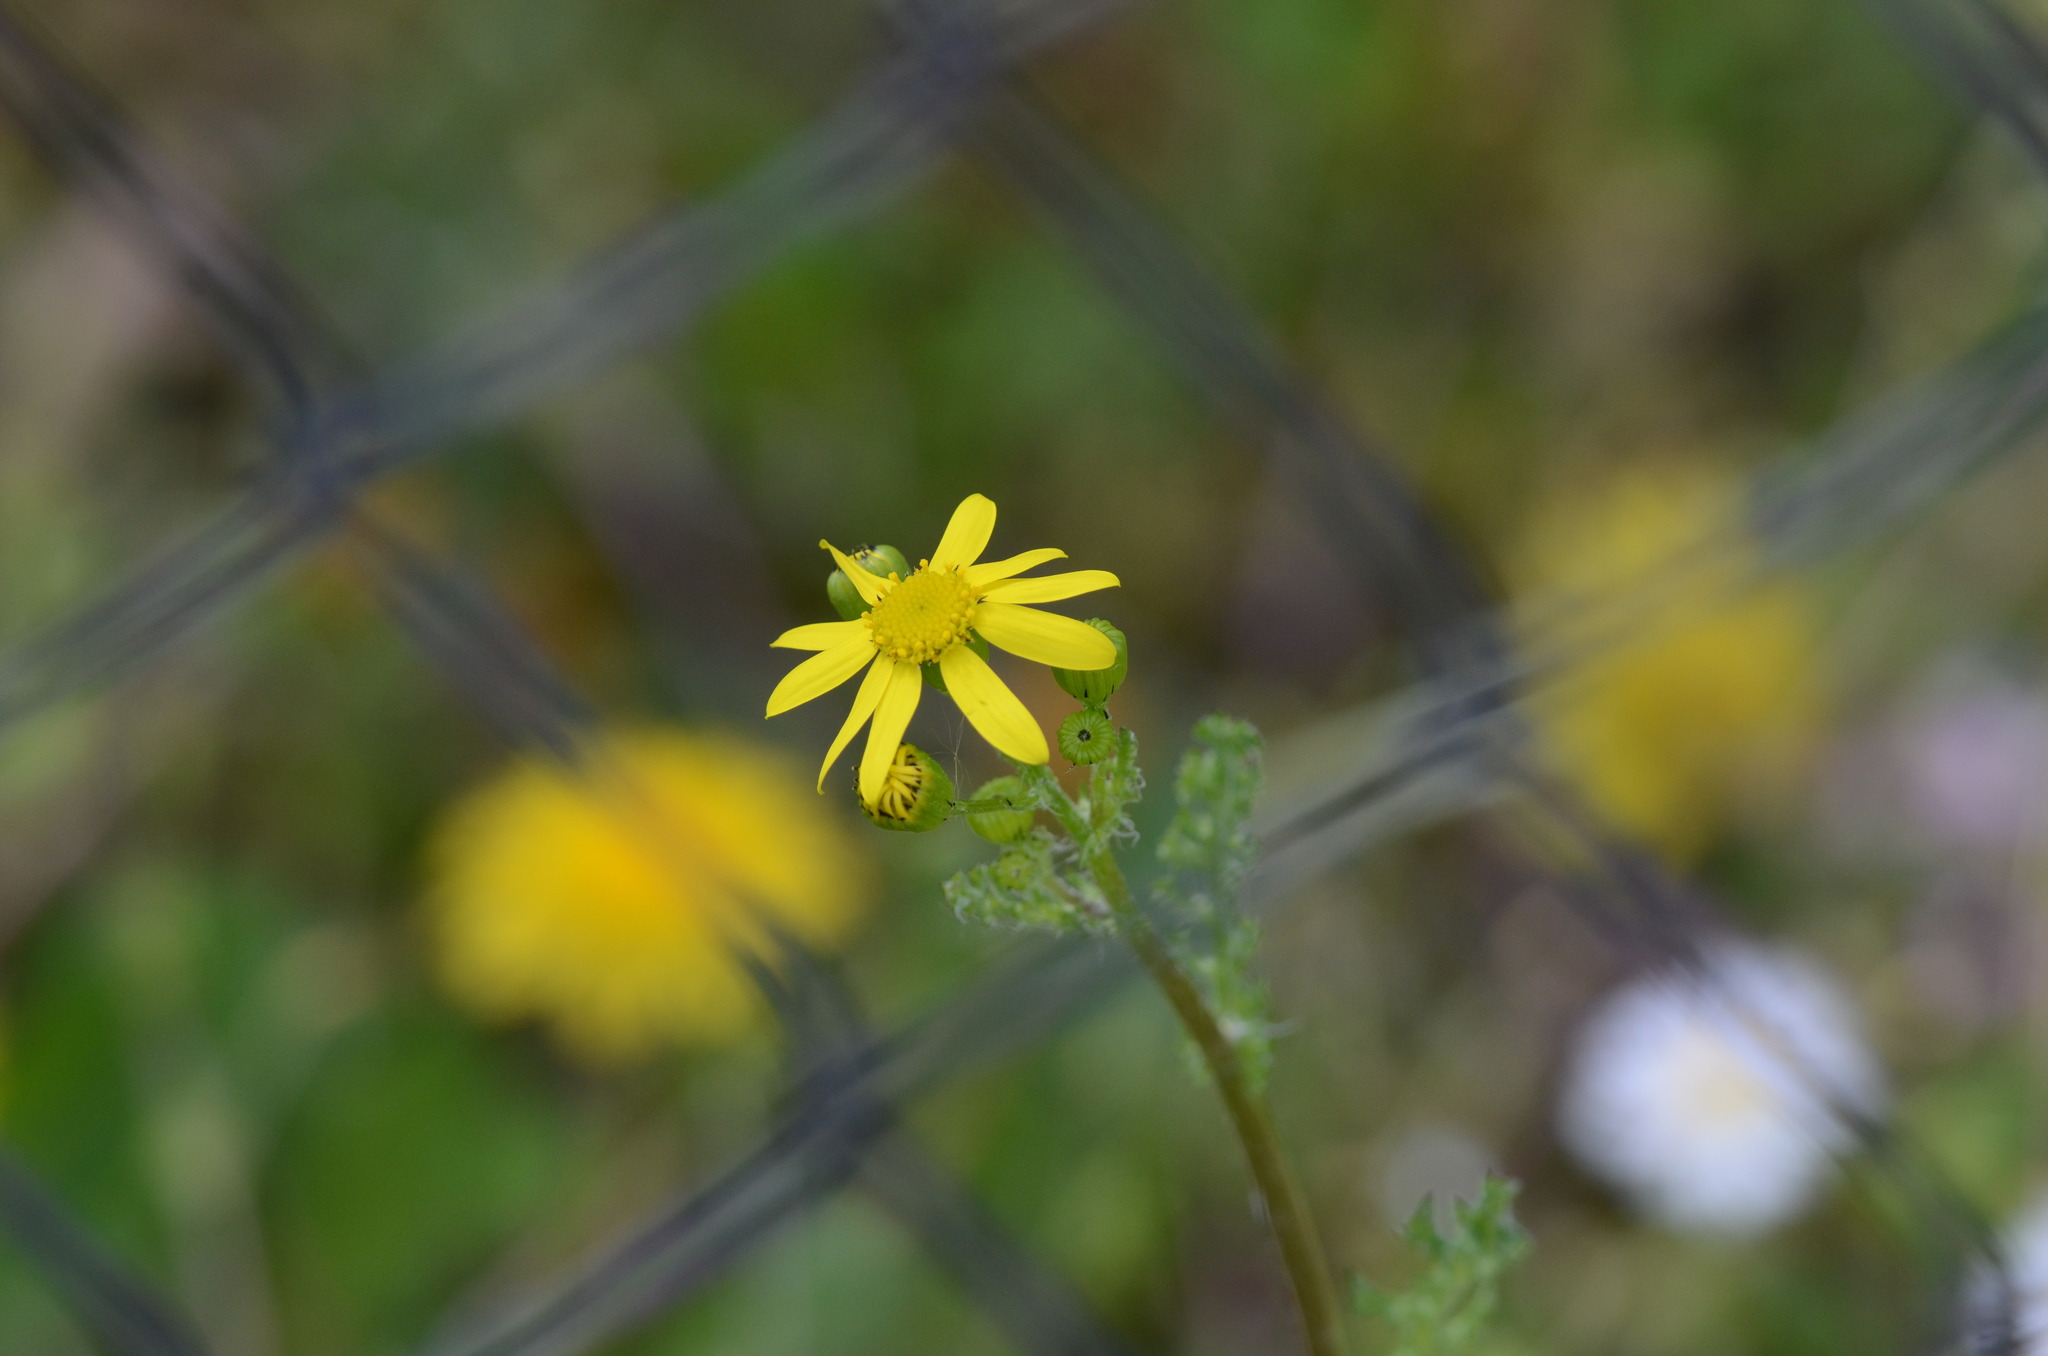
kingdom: Plantae
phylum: Tracheophyta
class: Magnoliopsida
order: Asterales
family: Asteraceae
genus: Senecio
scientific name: Senecio vernalis
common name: Eastern groundsel
